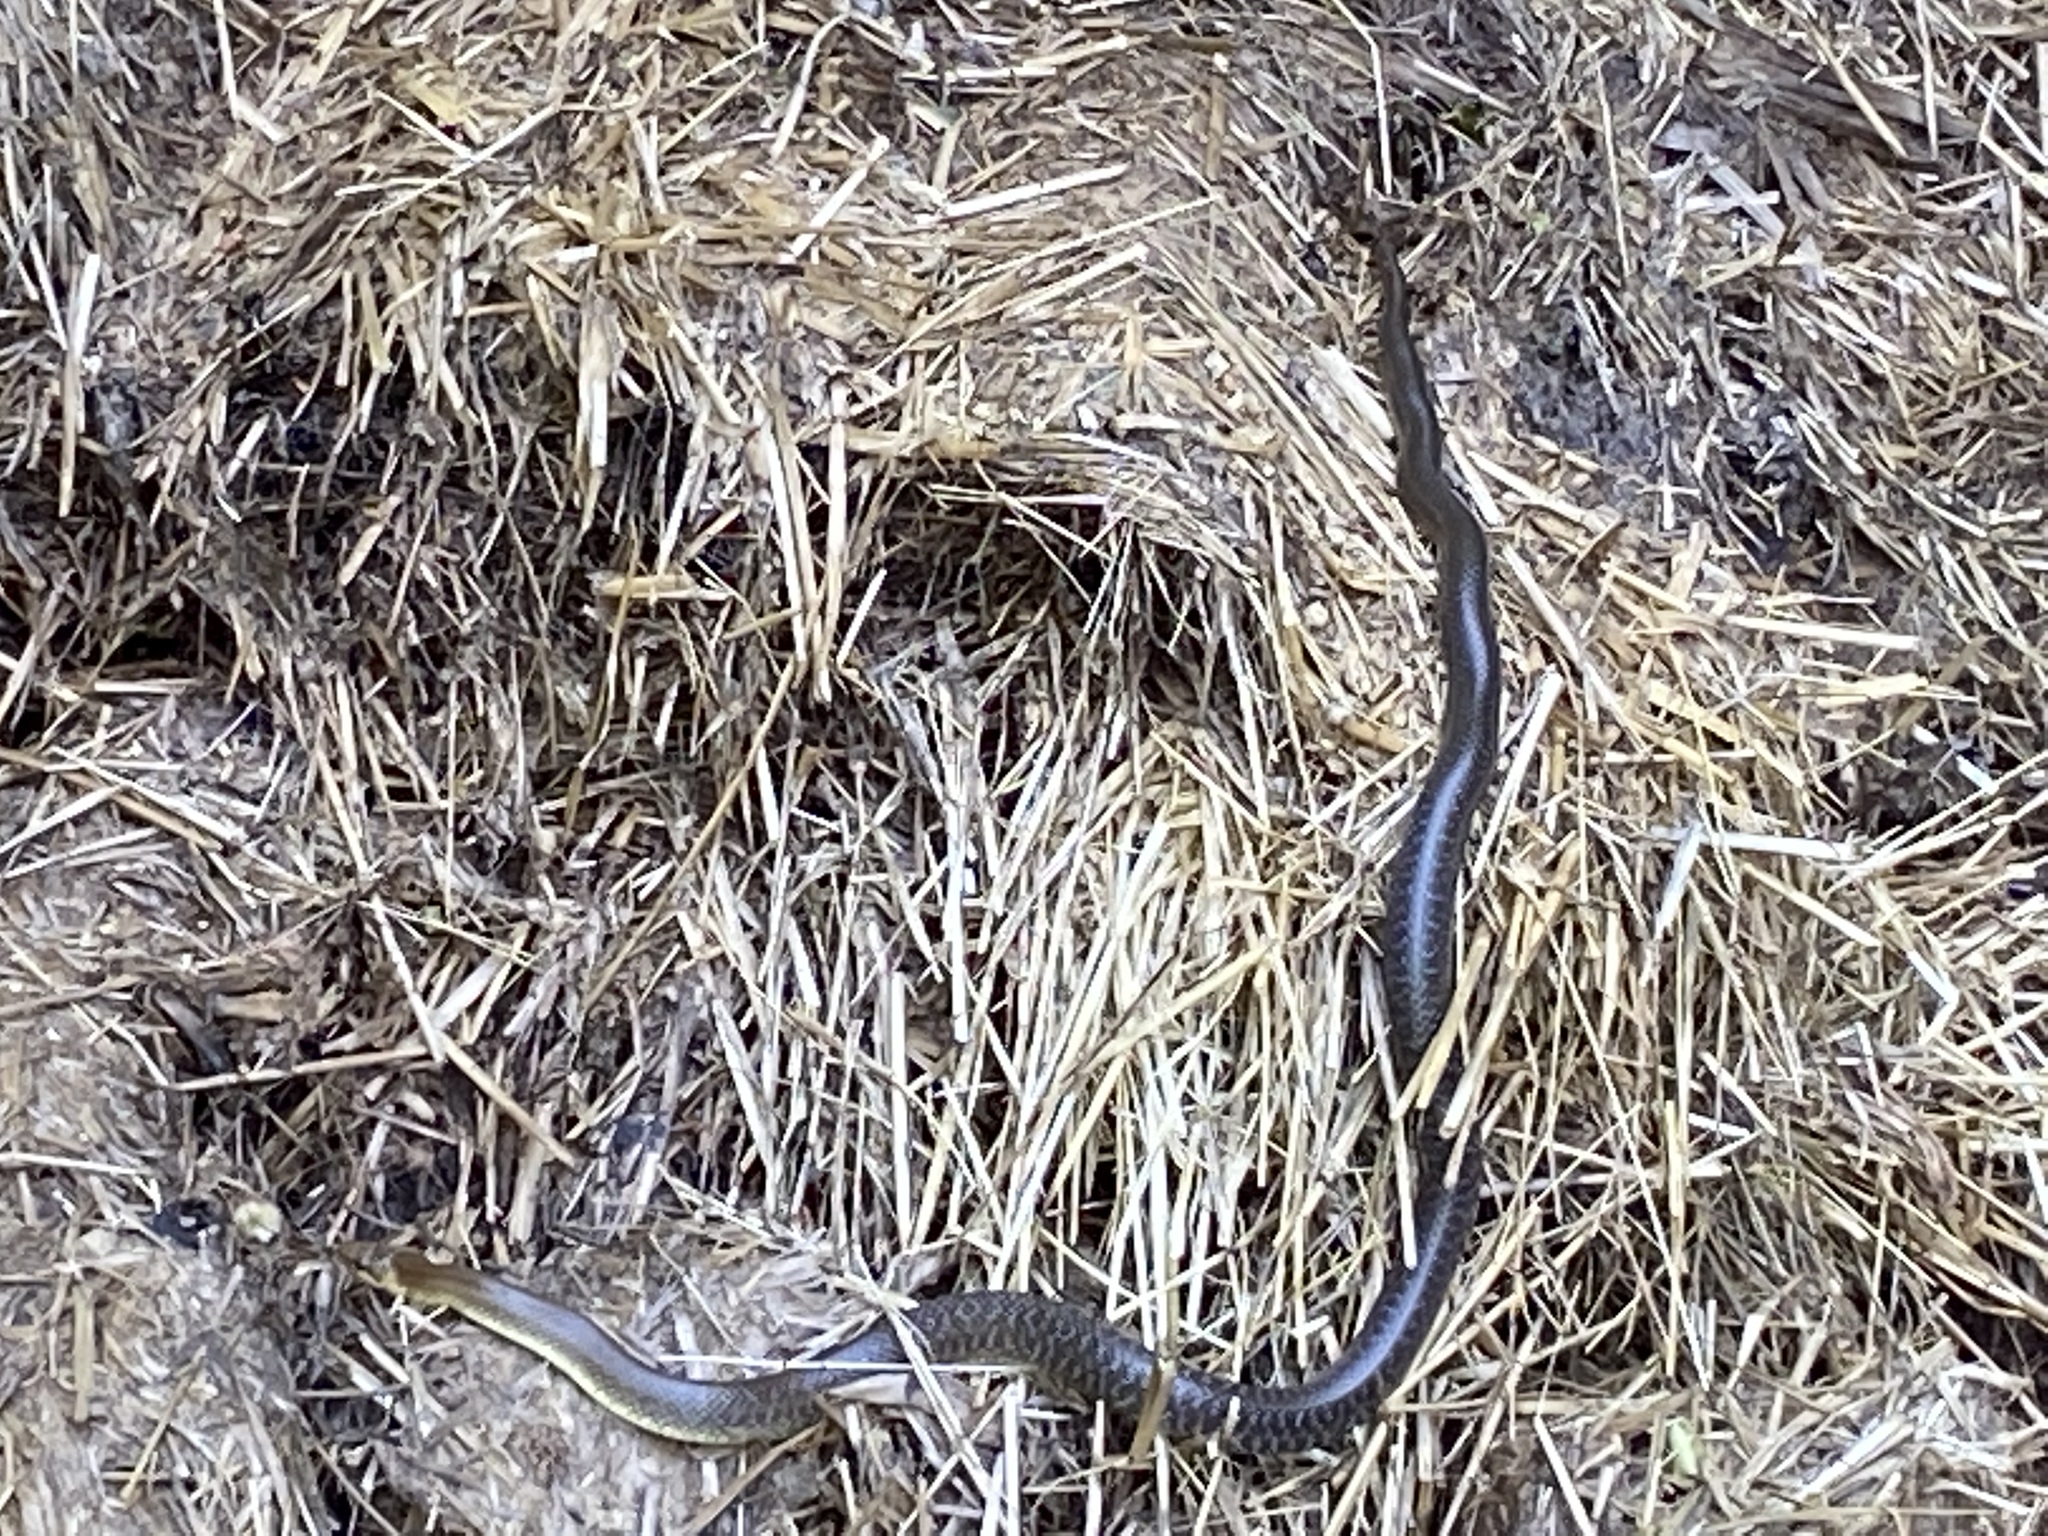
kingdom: Animalia
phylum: Chordata
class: Squamata
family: Colubridae
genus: Zamenis
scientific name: Zamenis longissimus
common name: Aesculapean snake
